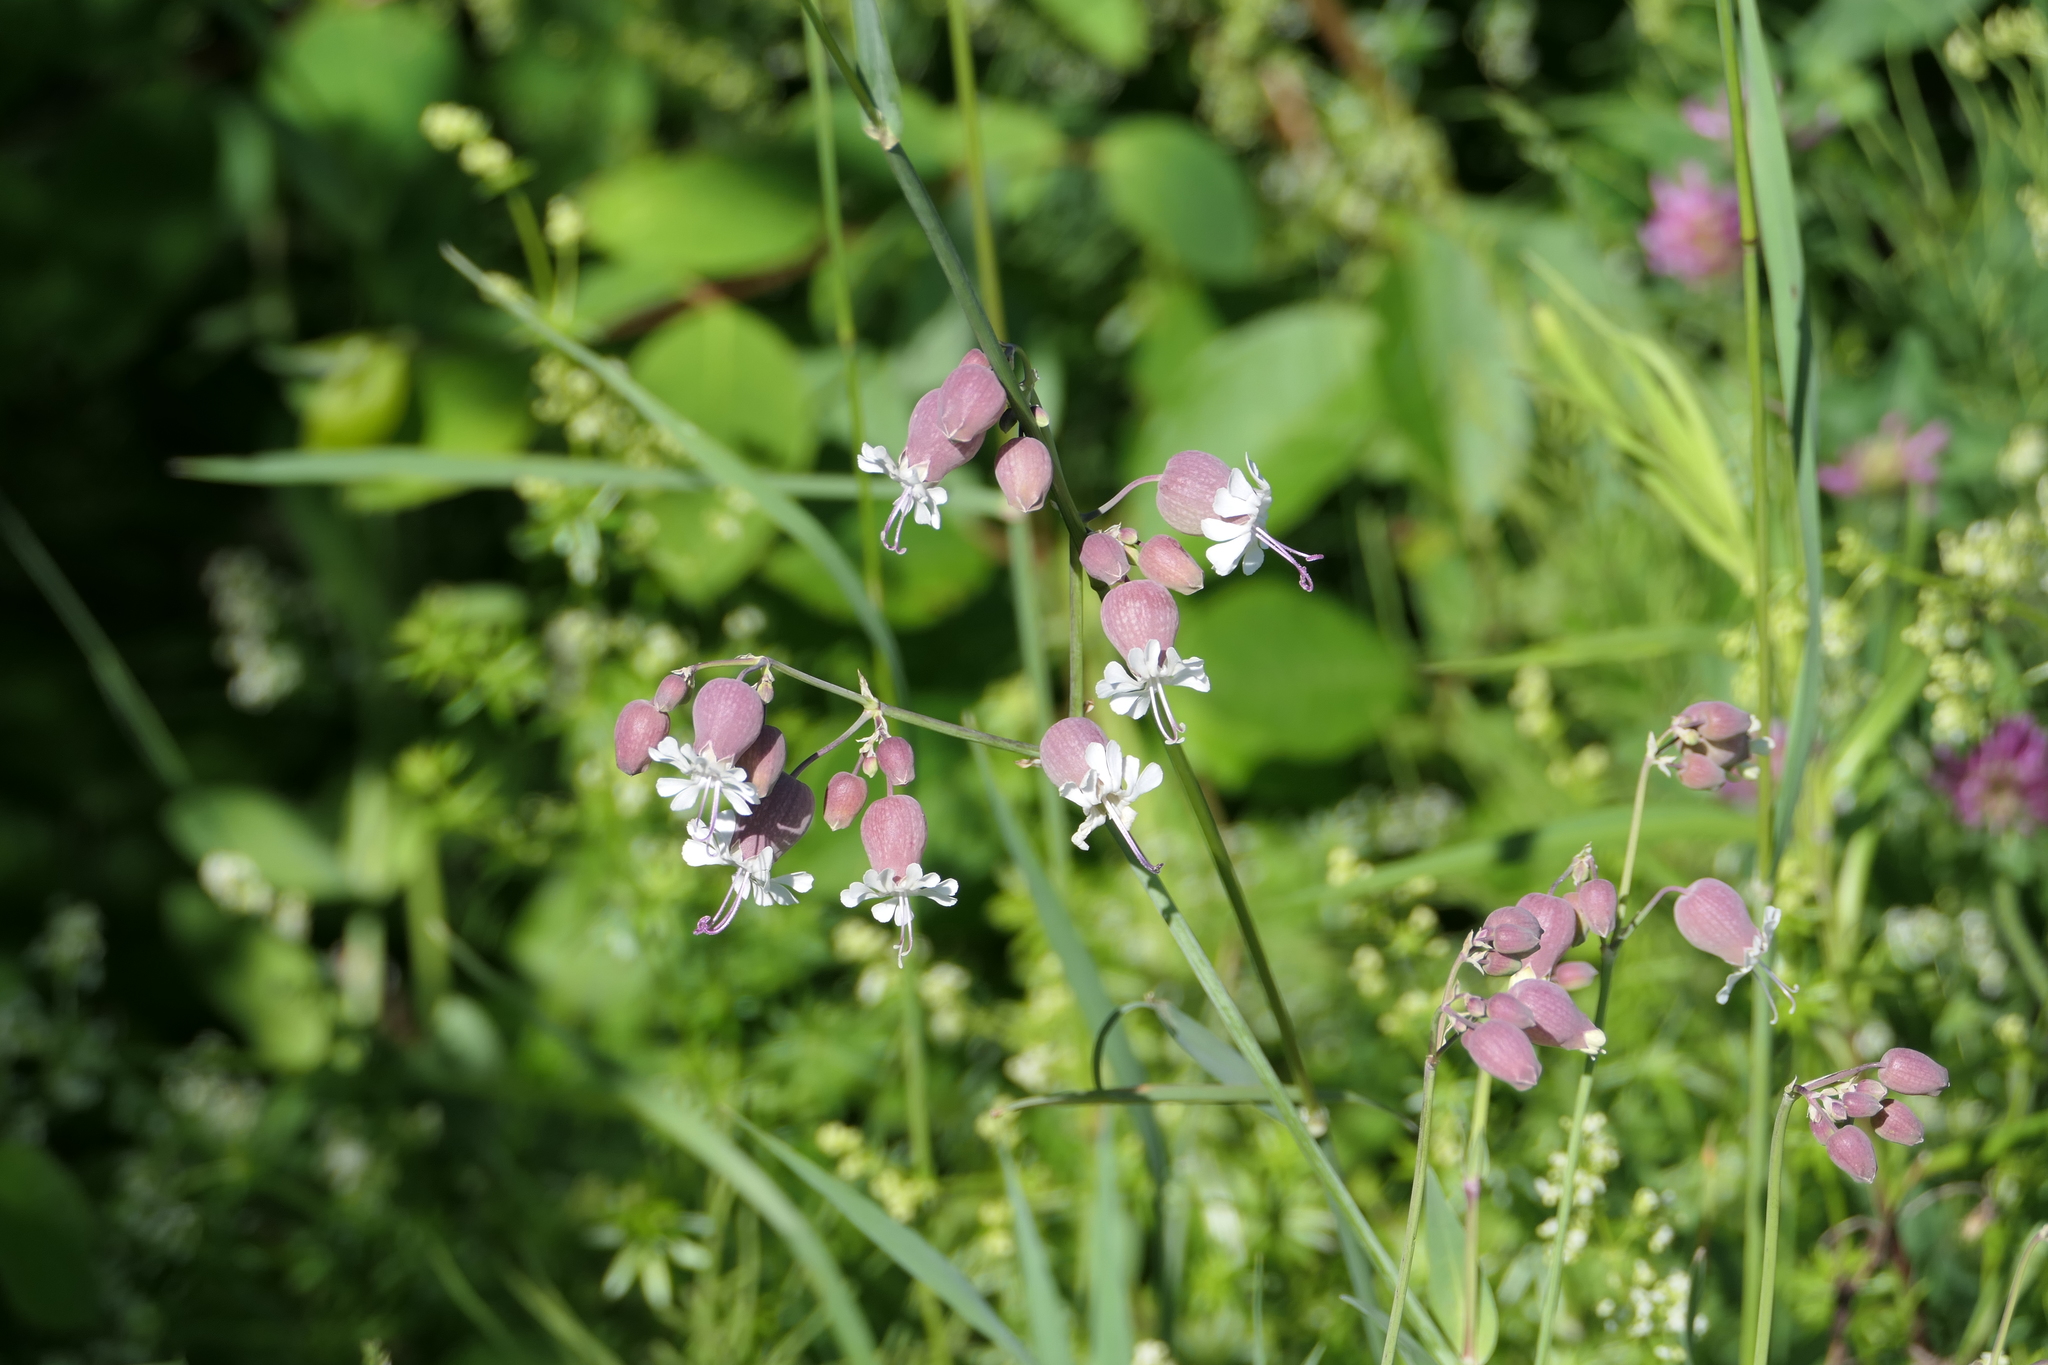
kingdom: Plantae
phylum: Tracheophyta
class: Magnoliopsida
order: Caryophyllales
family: Caryophyllaceae
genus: Silene
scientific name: Silene vulgaris
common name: Bladder campion
